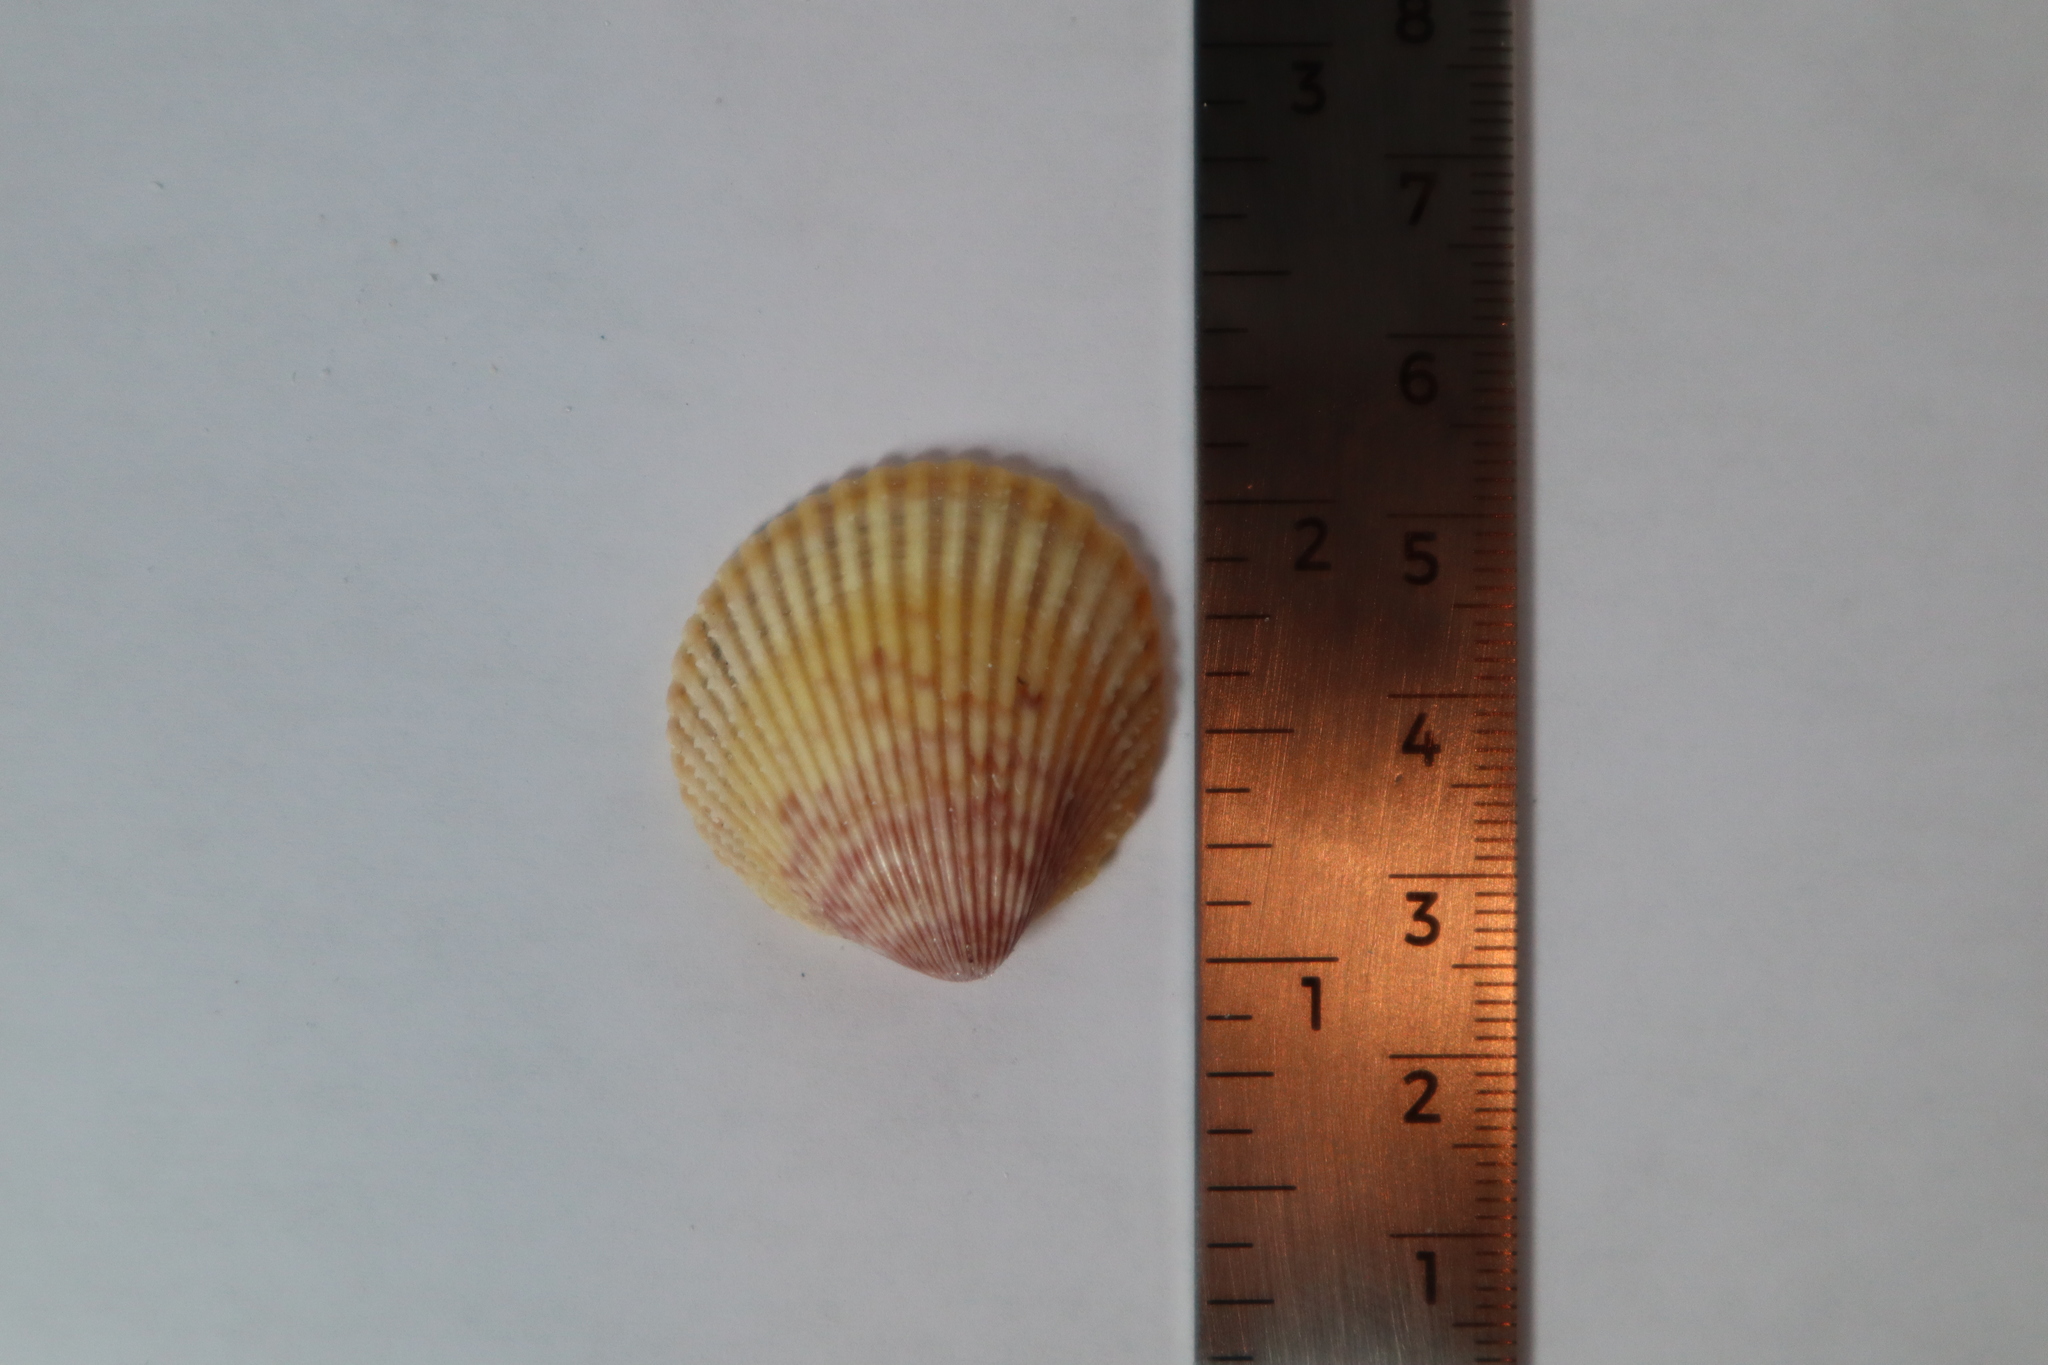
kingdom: Animalia
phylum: Mollusca
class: Bivalvia
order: Cardiida
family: Cardiidae
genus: Dallocardia
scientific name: Dallocardia muricata
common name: Yellow pricklycockle
